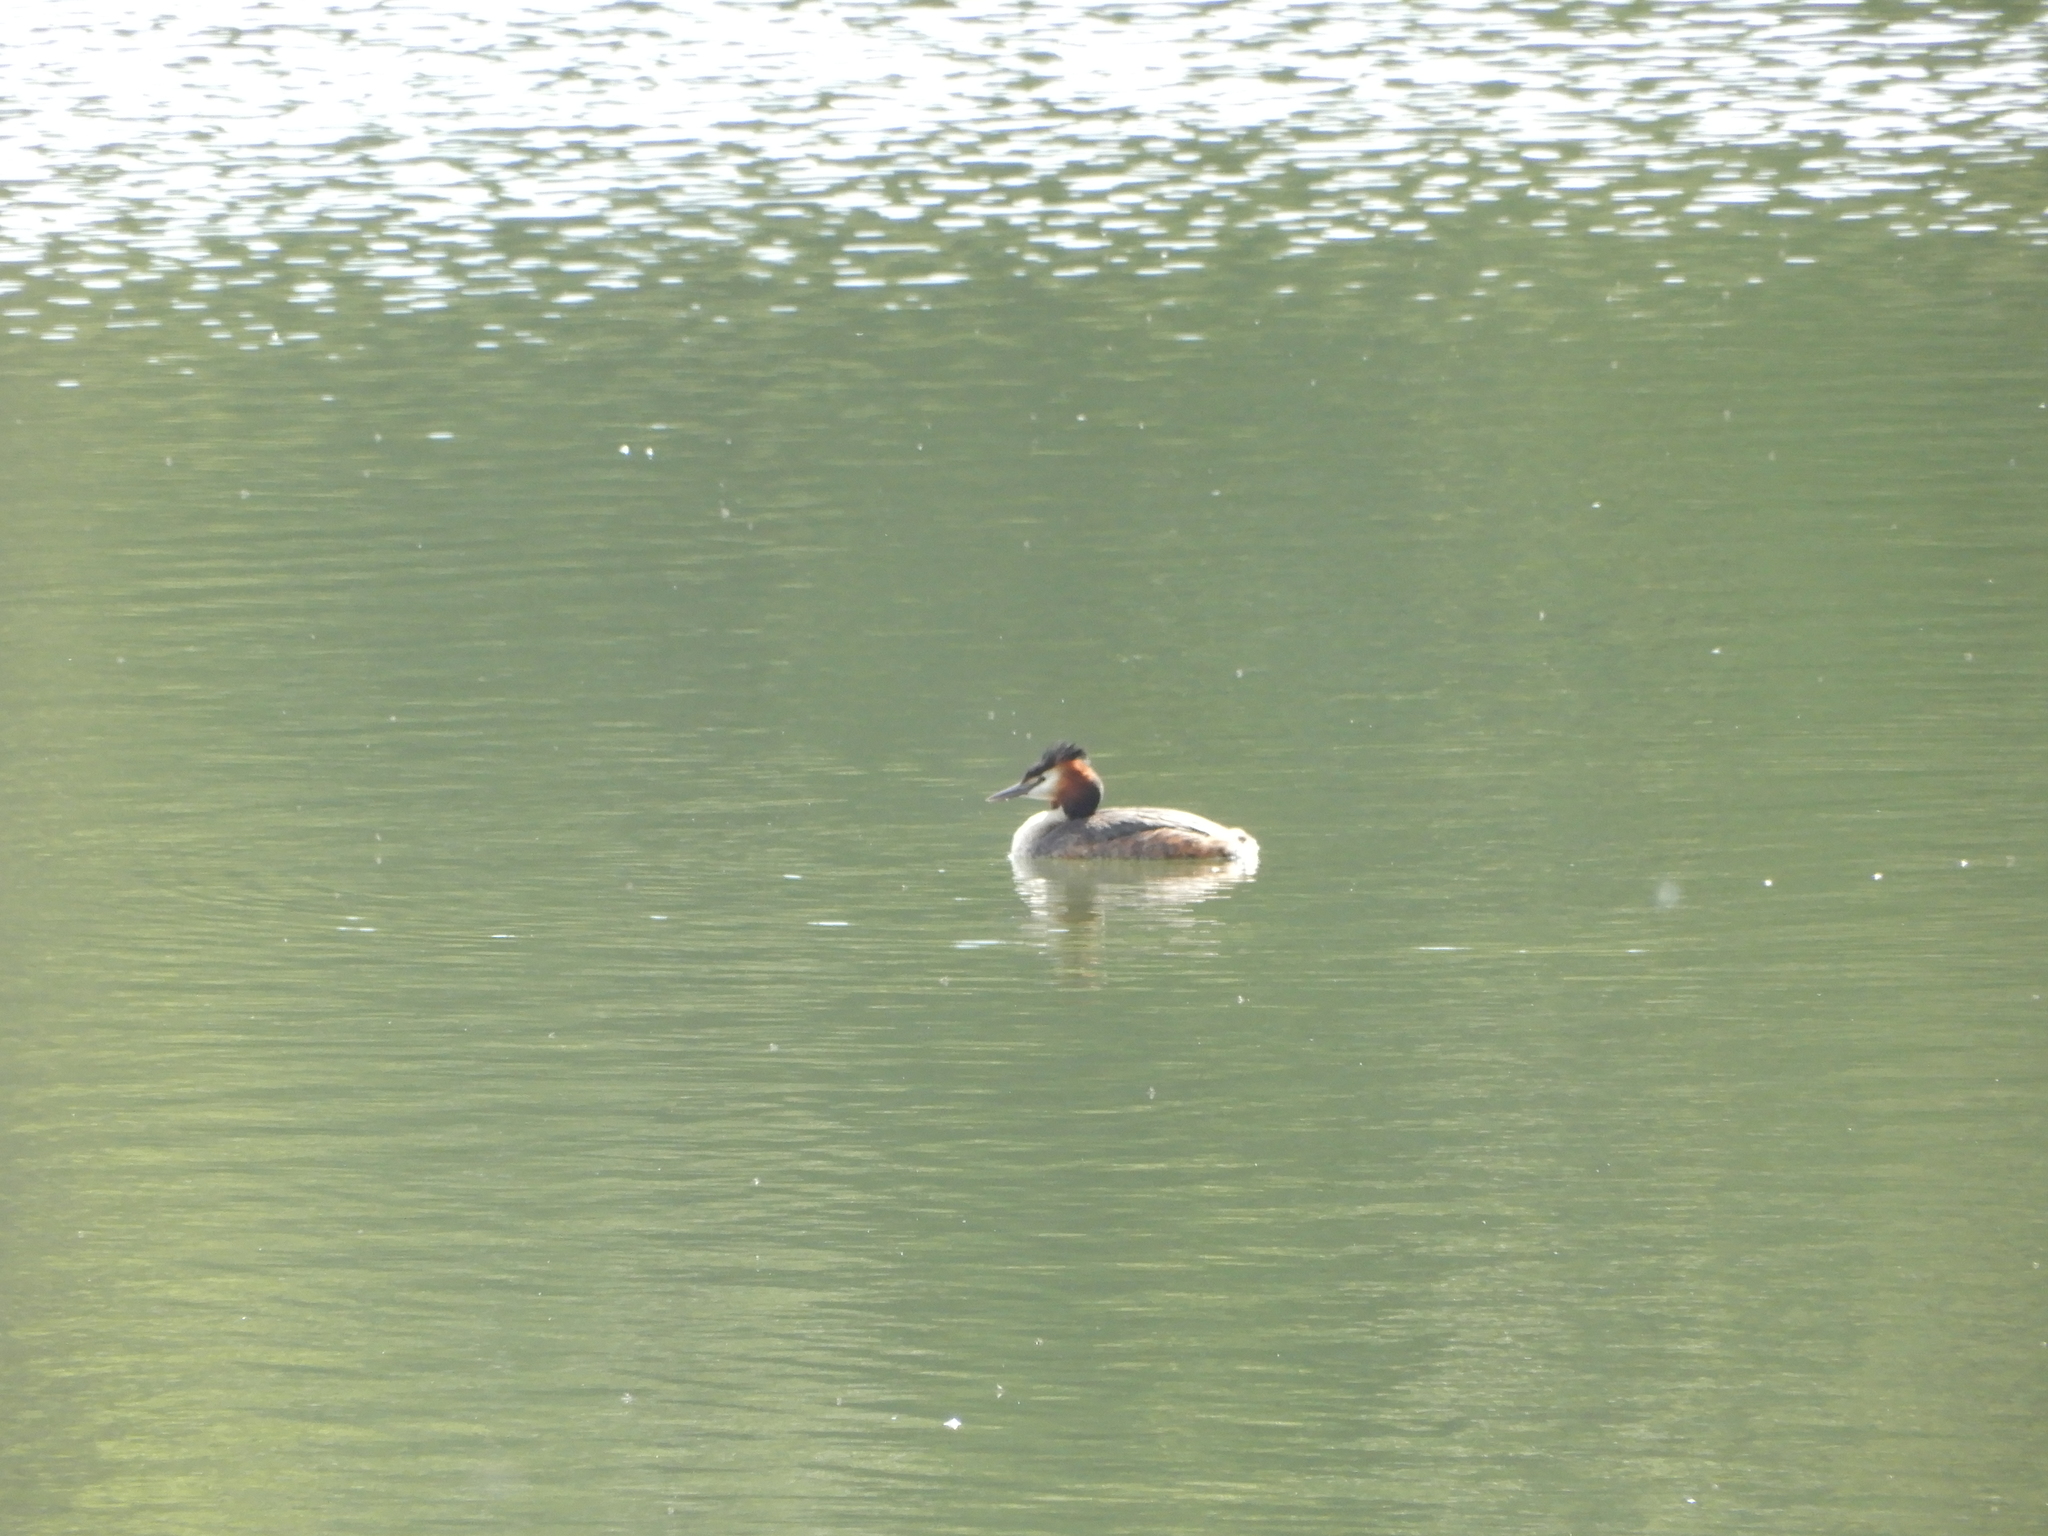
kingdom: Animalia
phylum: Chordata
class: Aves
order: Podicipediformes
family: Podicipedidae
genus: Podiceps
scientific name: Podiceps cristatus
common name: Great crested grebe
